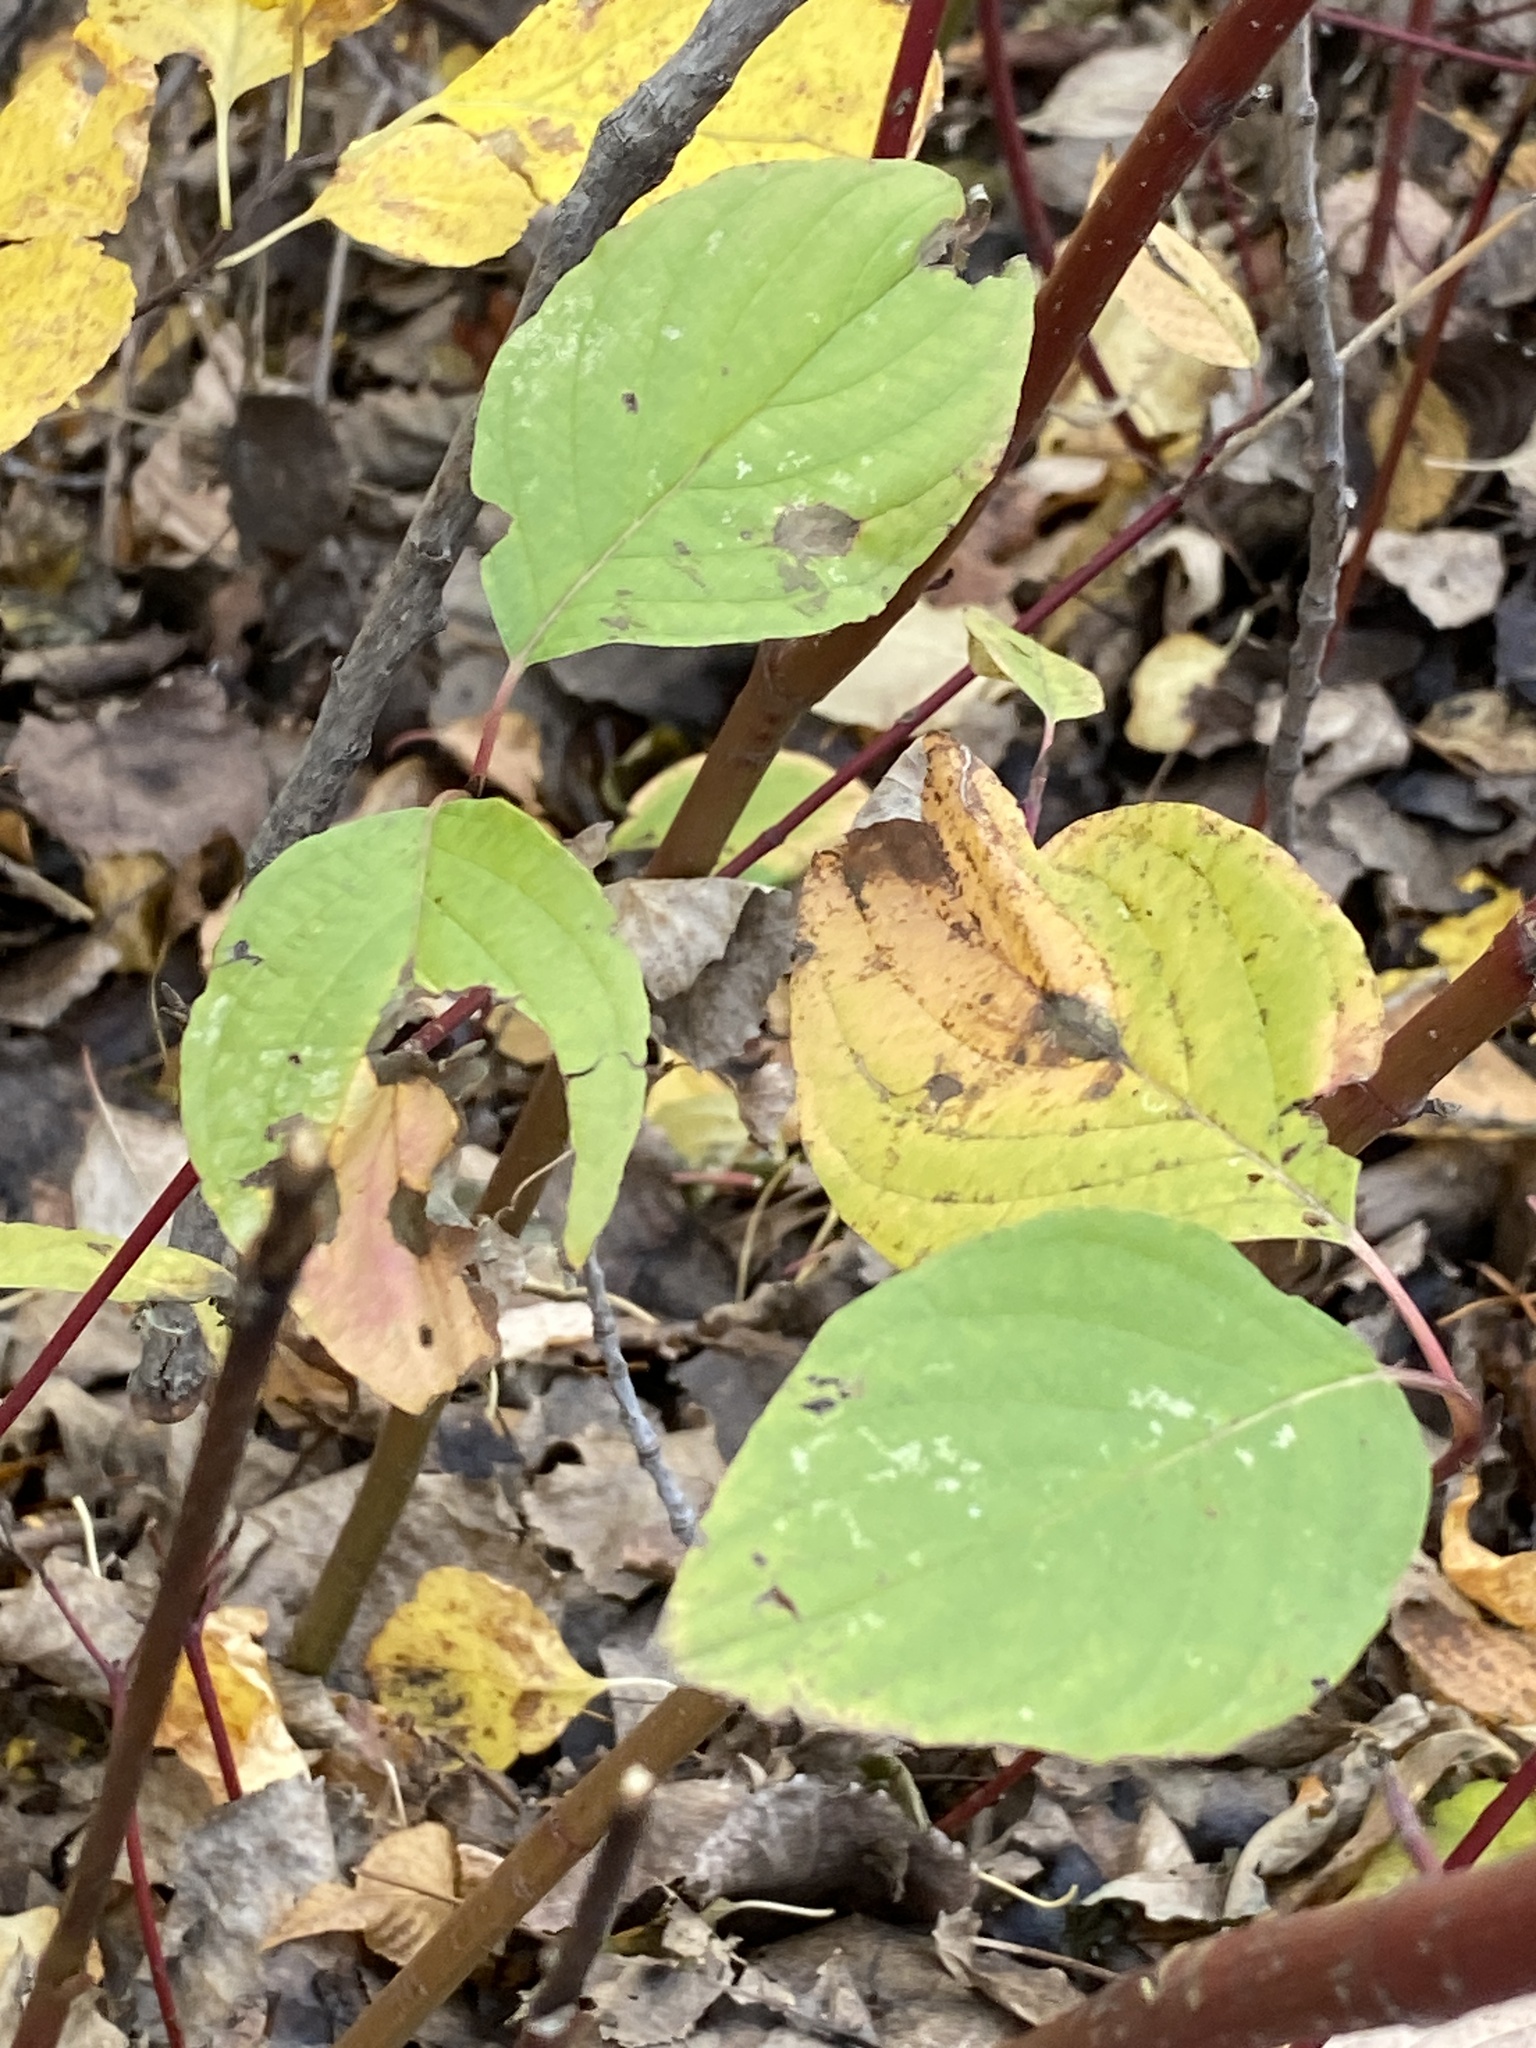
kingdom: Plantae
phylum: Tracheophyta
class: Magnoliopsida
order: Cornales
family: Cornaceae
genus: Cornus
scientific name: Cornus sericea
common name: Red-osier dogwood
